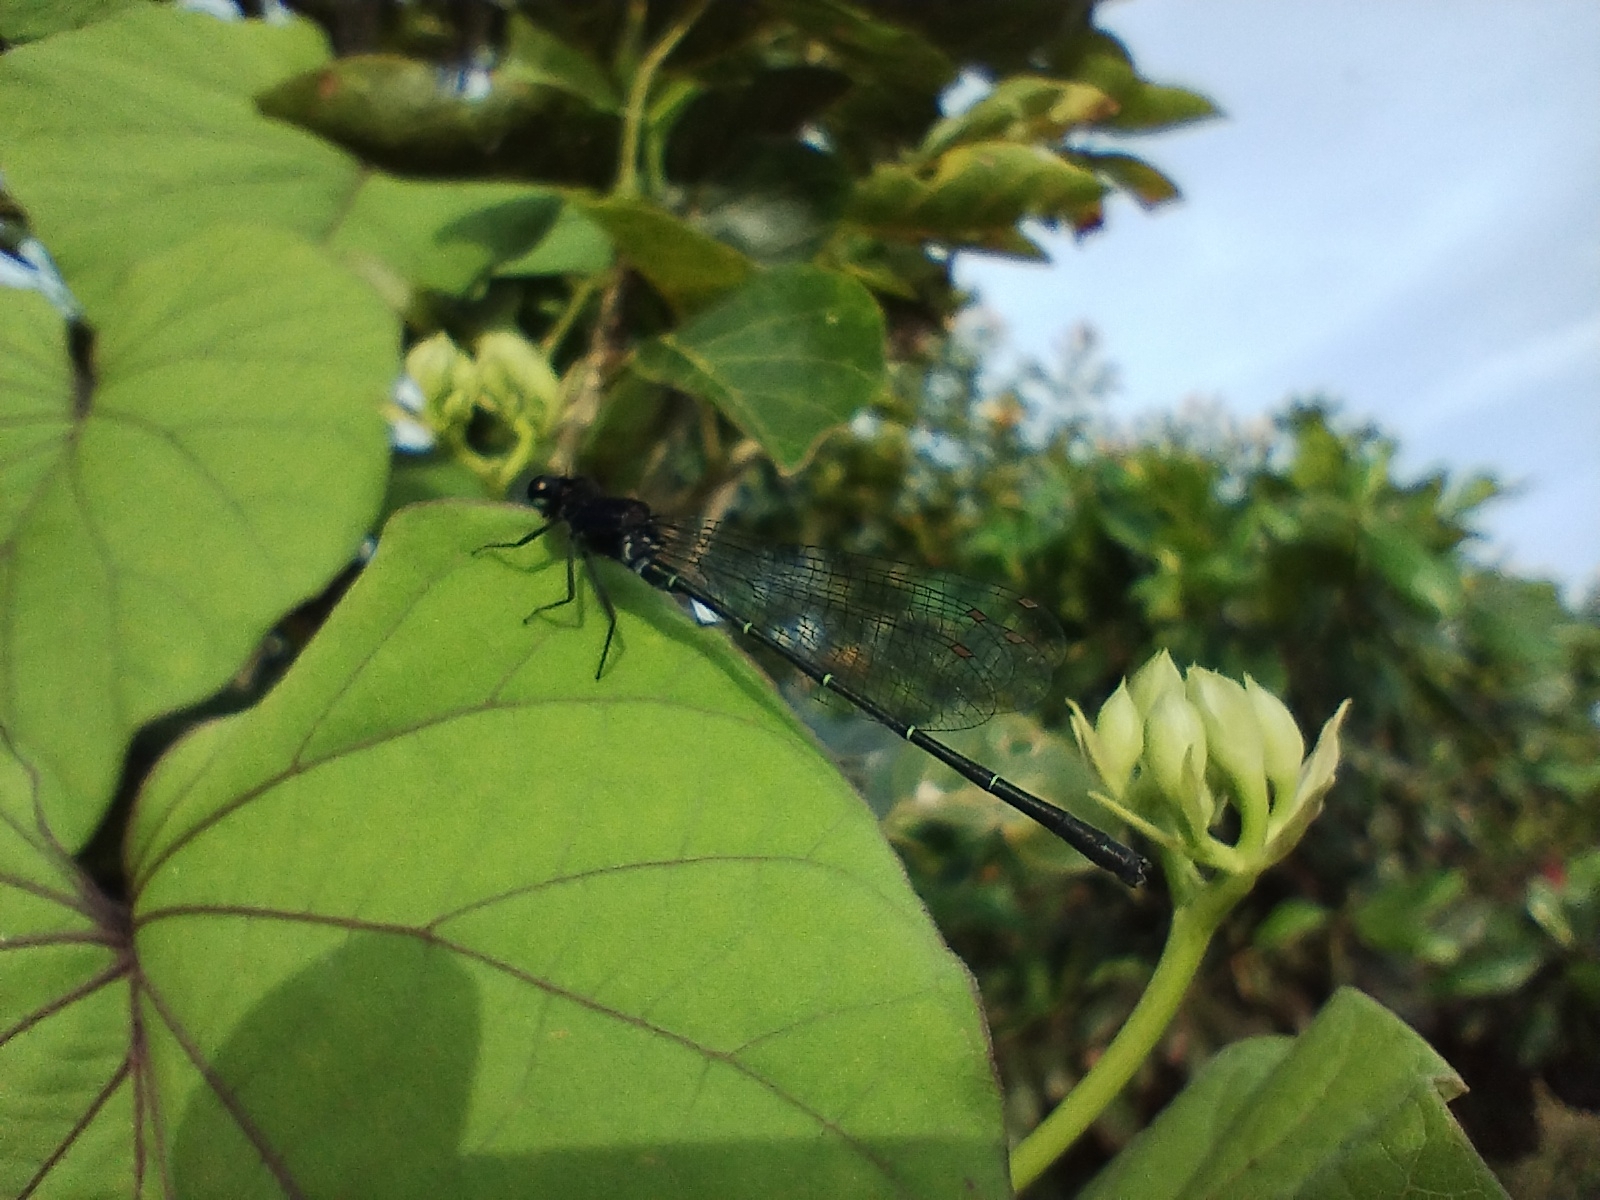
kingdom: Animalia
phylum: Arthropoda
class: Insecta
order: Odonata
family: Platycnemididae
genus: Onychargia
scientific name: Onychargia atrocyana
